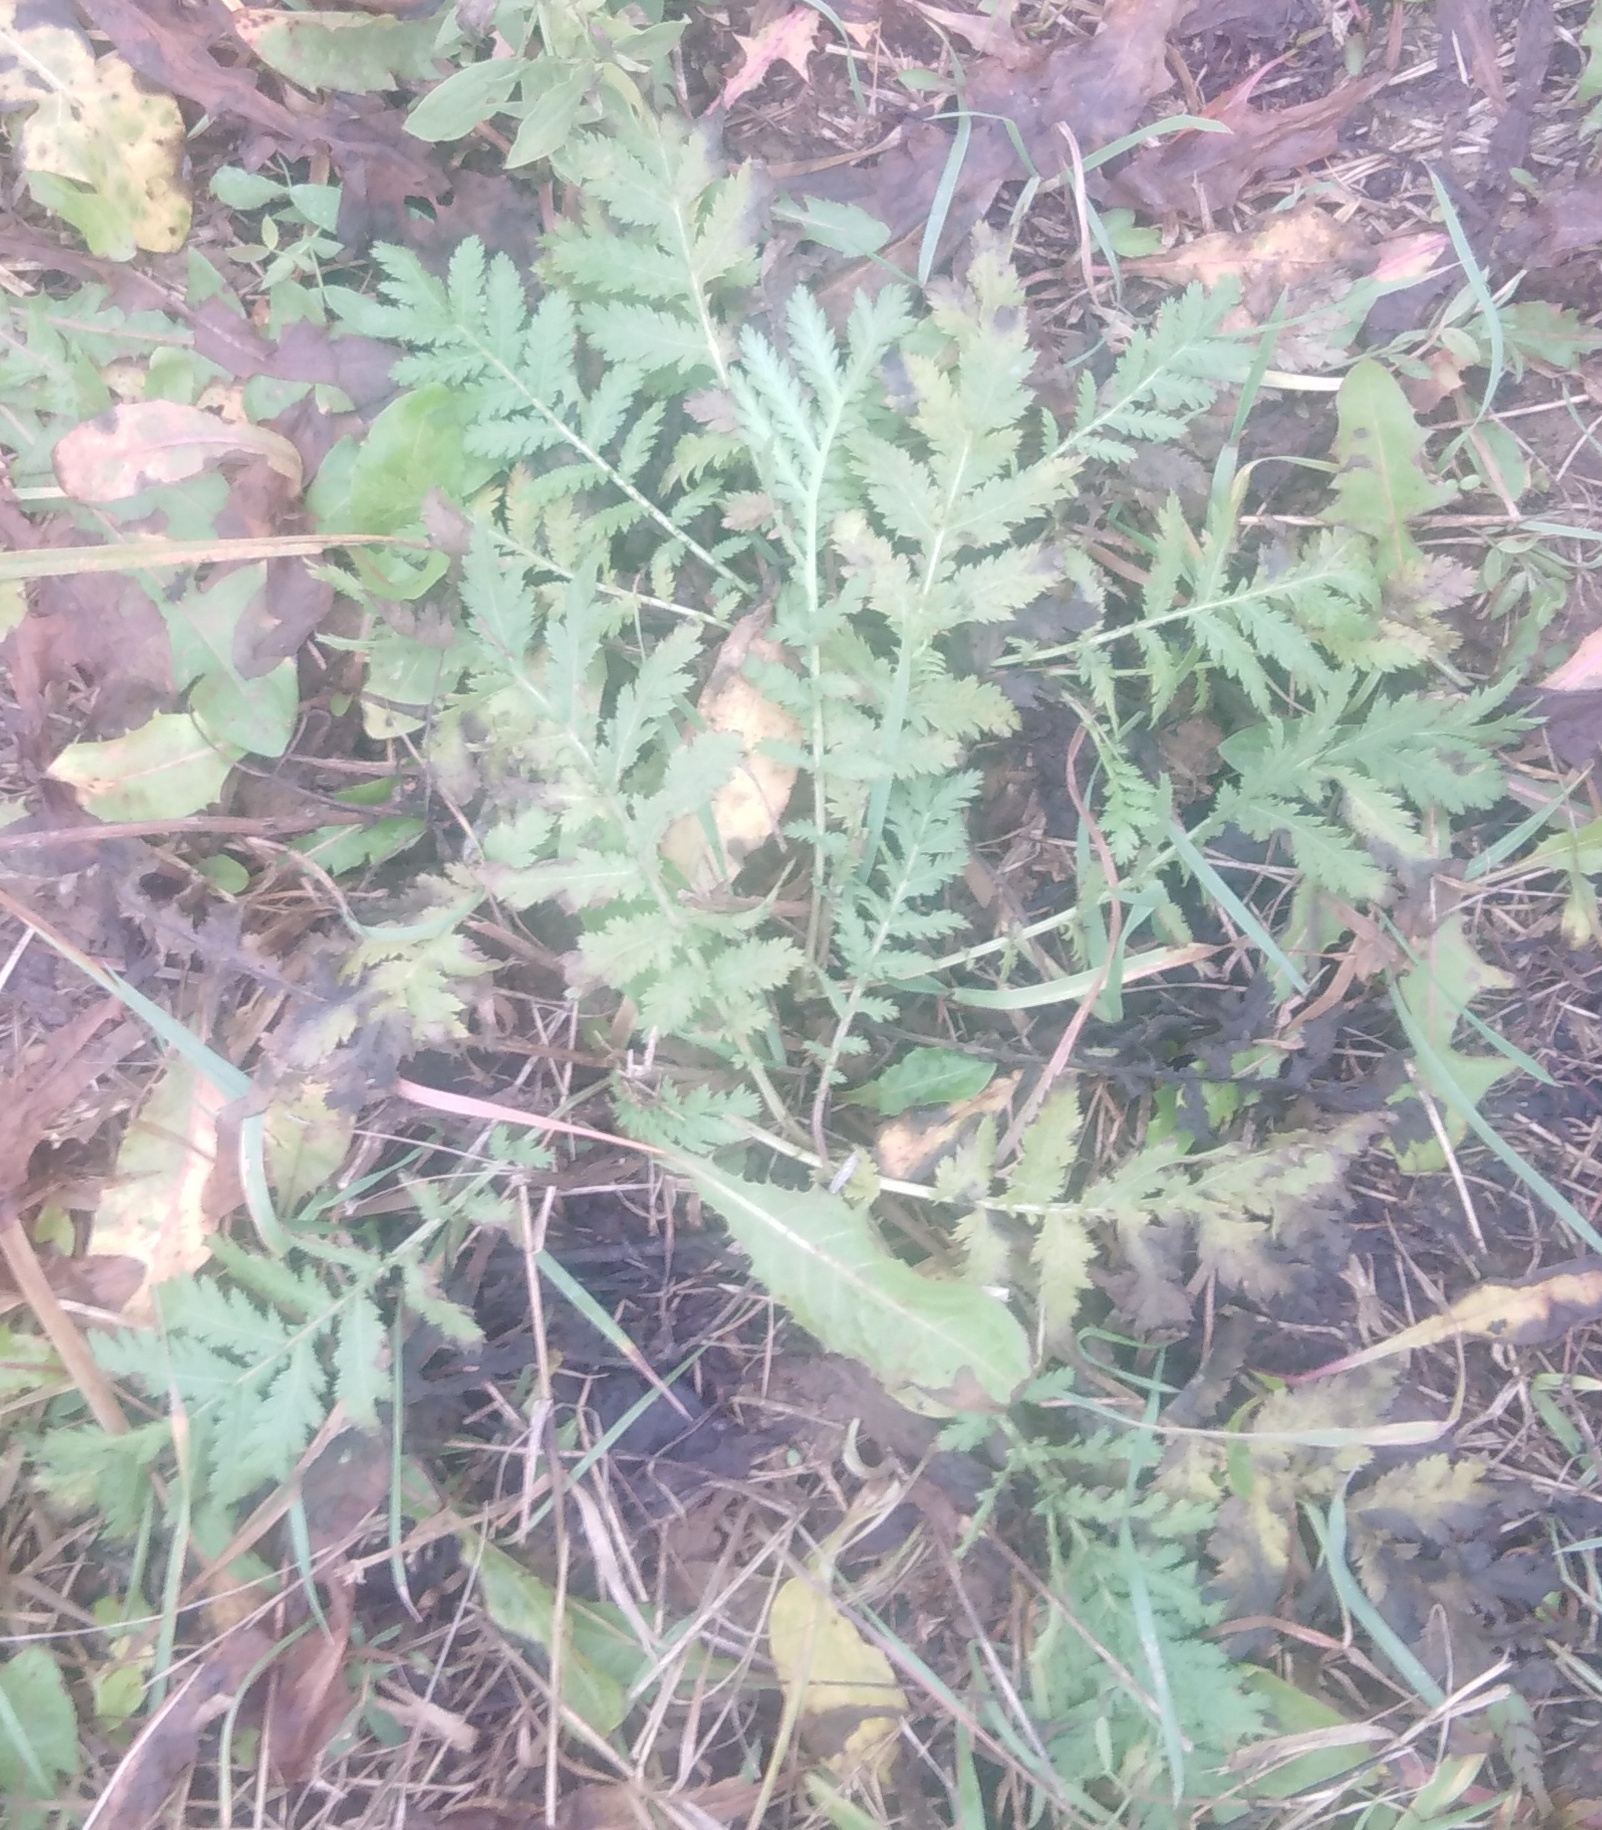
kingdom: Plantae
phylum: Tracheophyta
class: Magnoliopsida
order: Asterales
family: Asteraceae
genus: Tanacetum
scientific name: Tanacetum vulgare
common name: Common tansy
